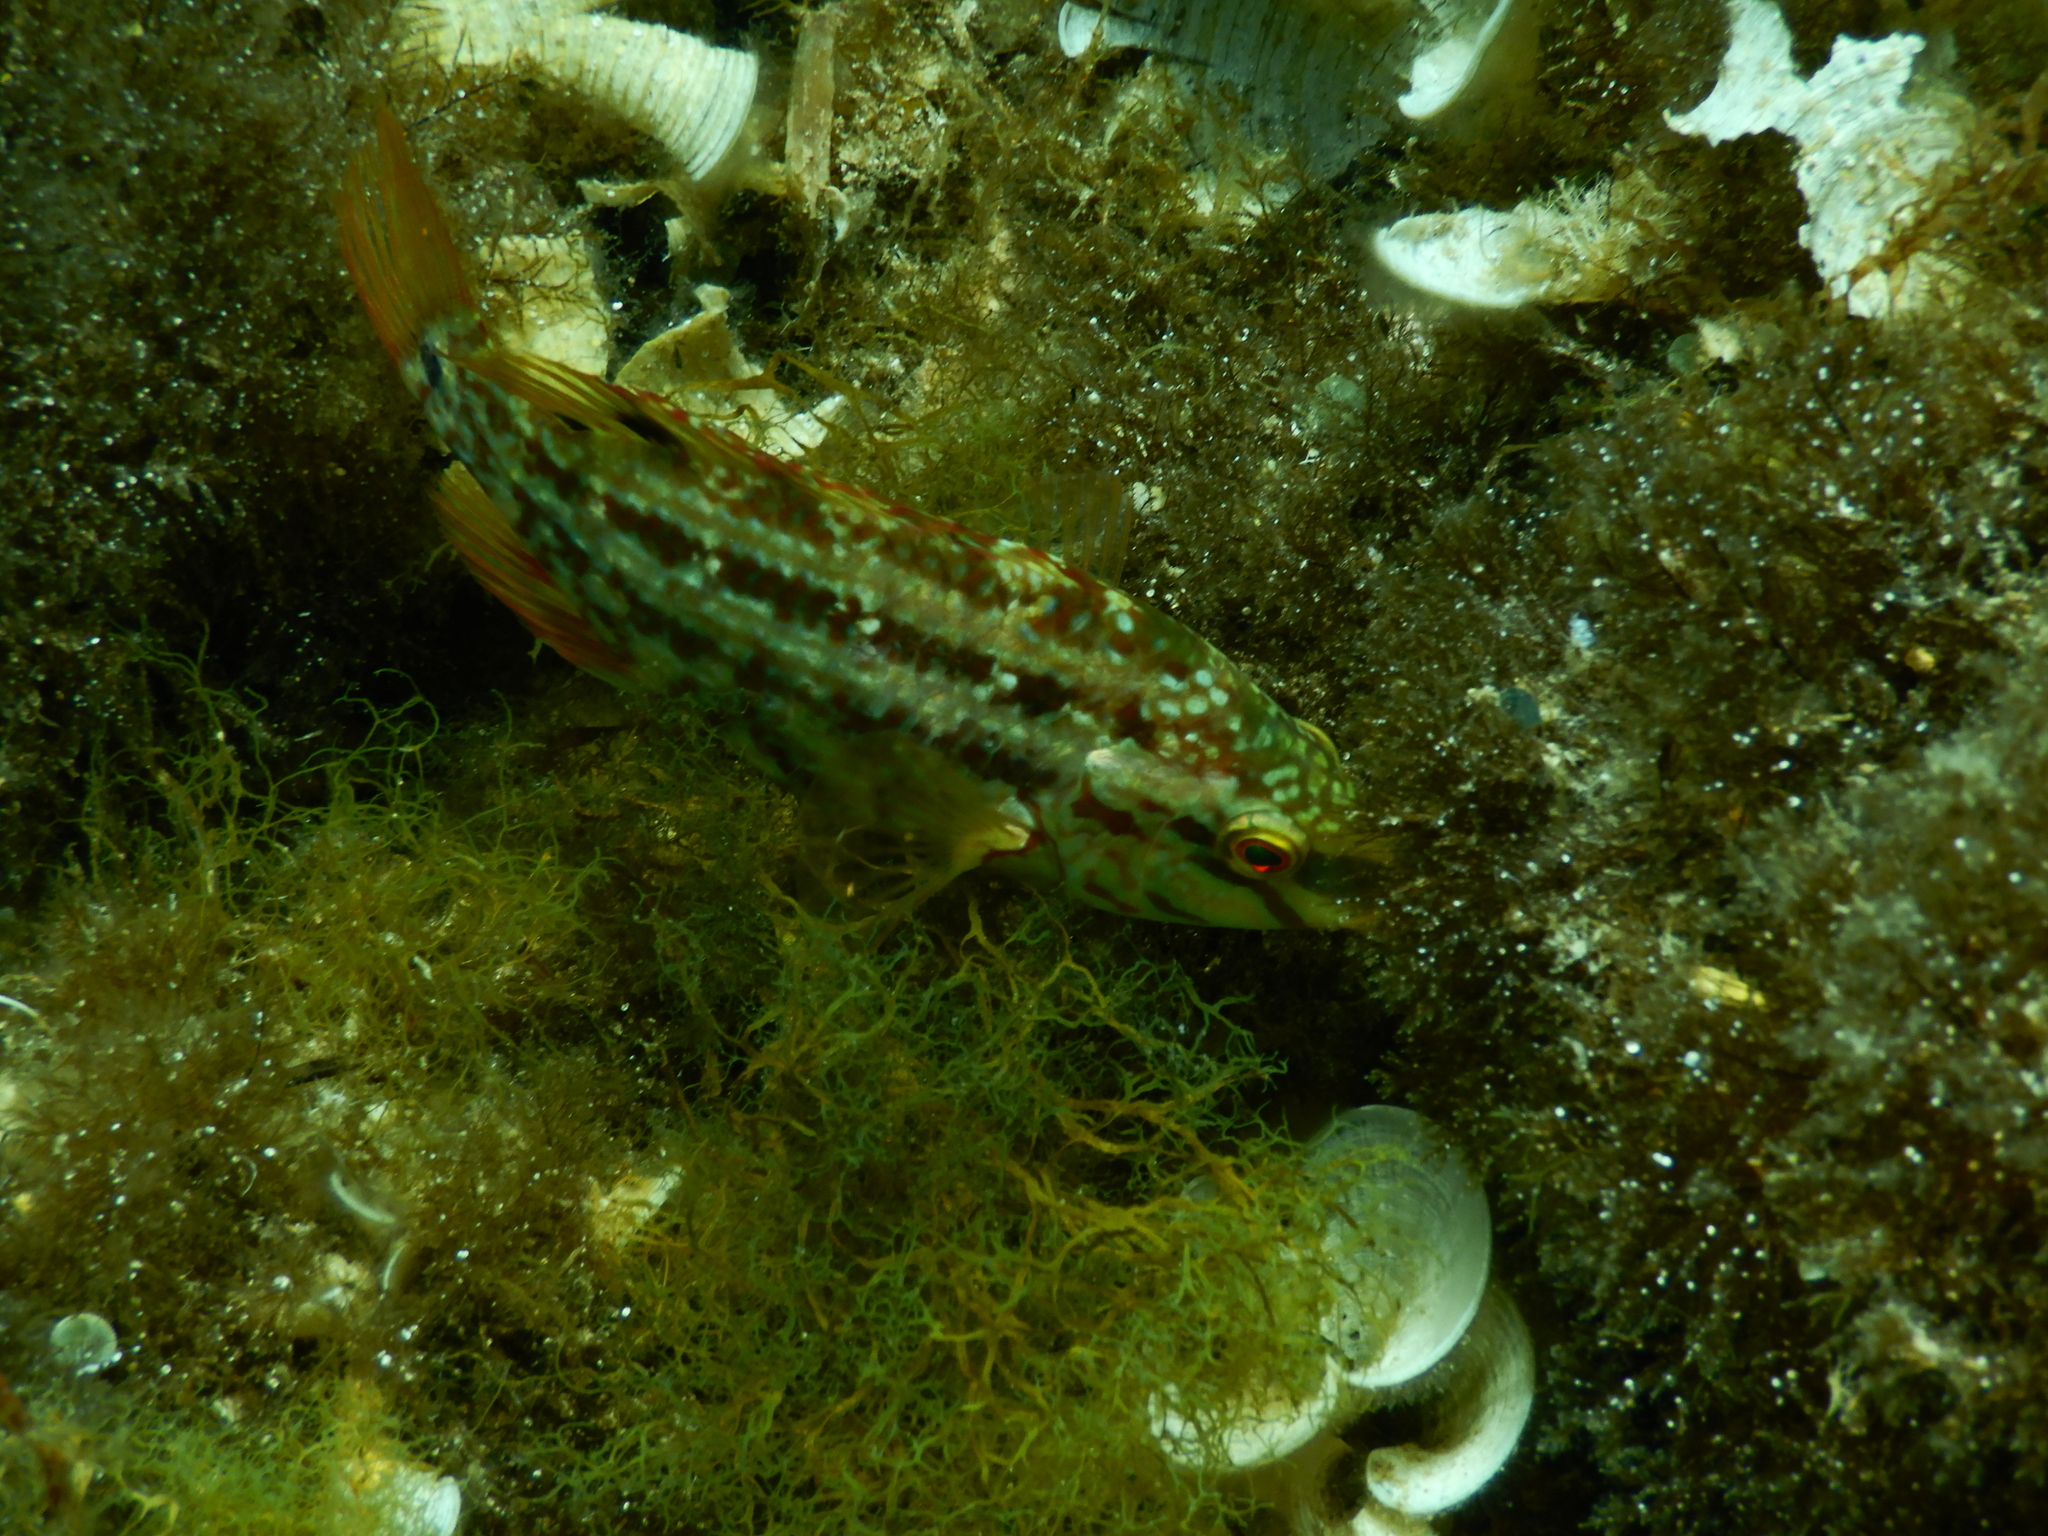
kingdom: Animalia
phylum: Chordata
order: Perciformes
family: Labridae
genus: Symphodus
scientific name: Symphodus roissali
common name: Five-spotted wrasse
